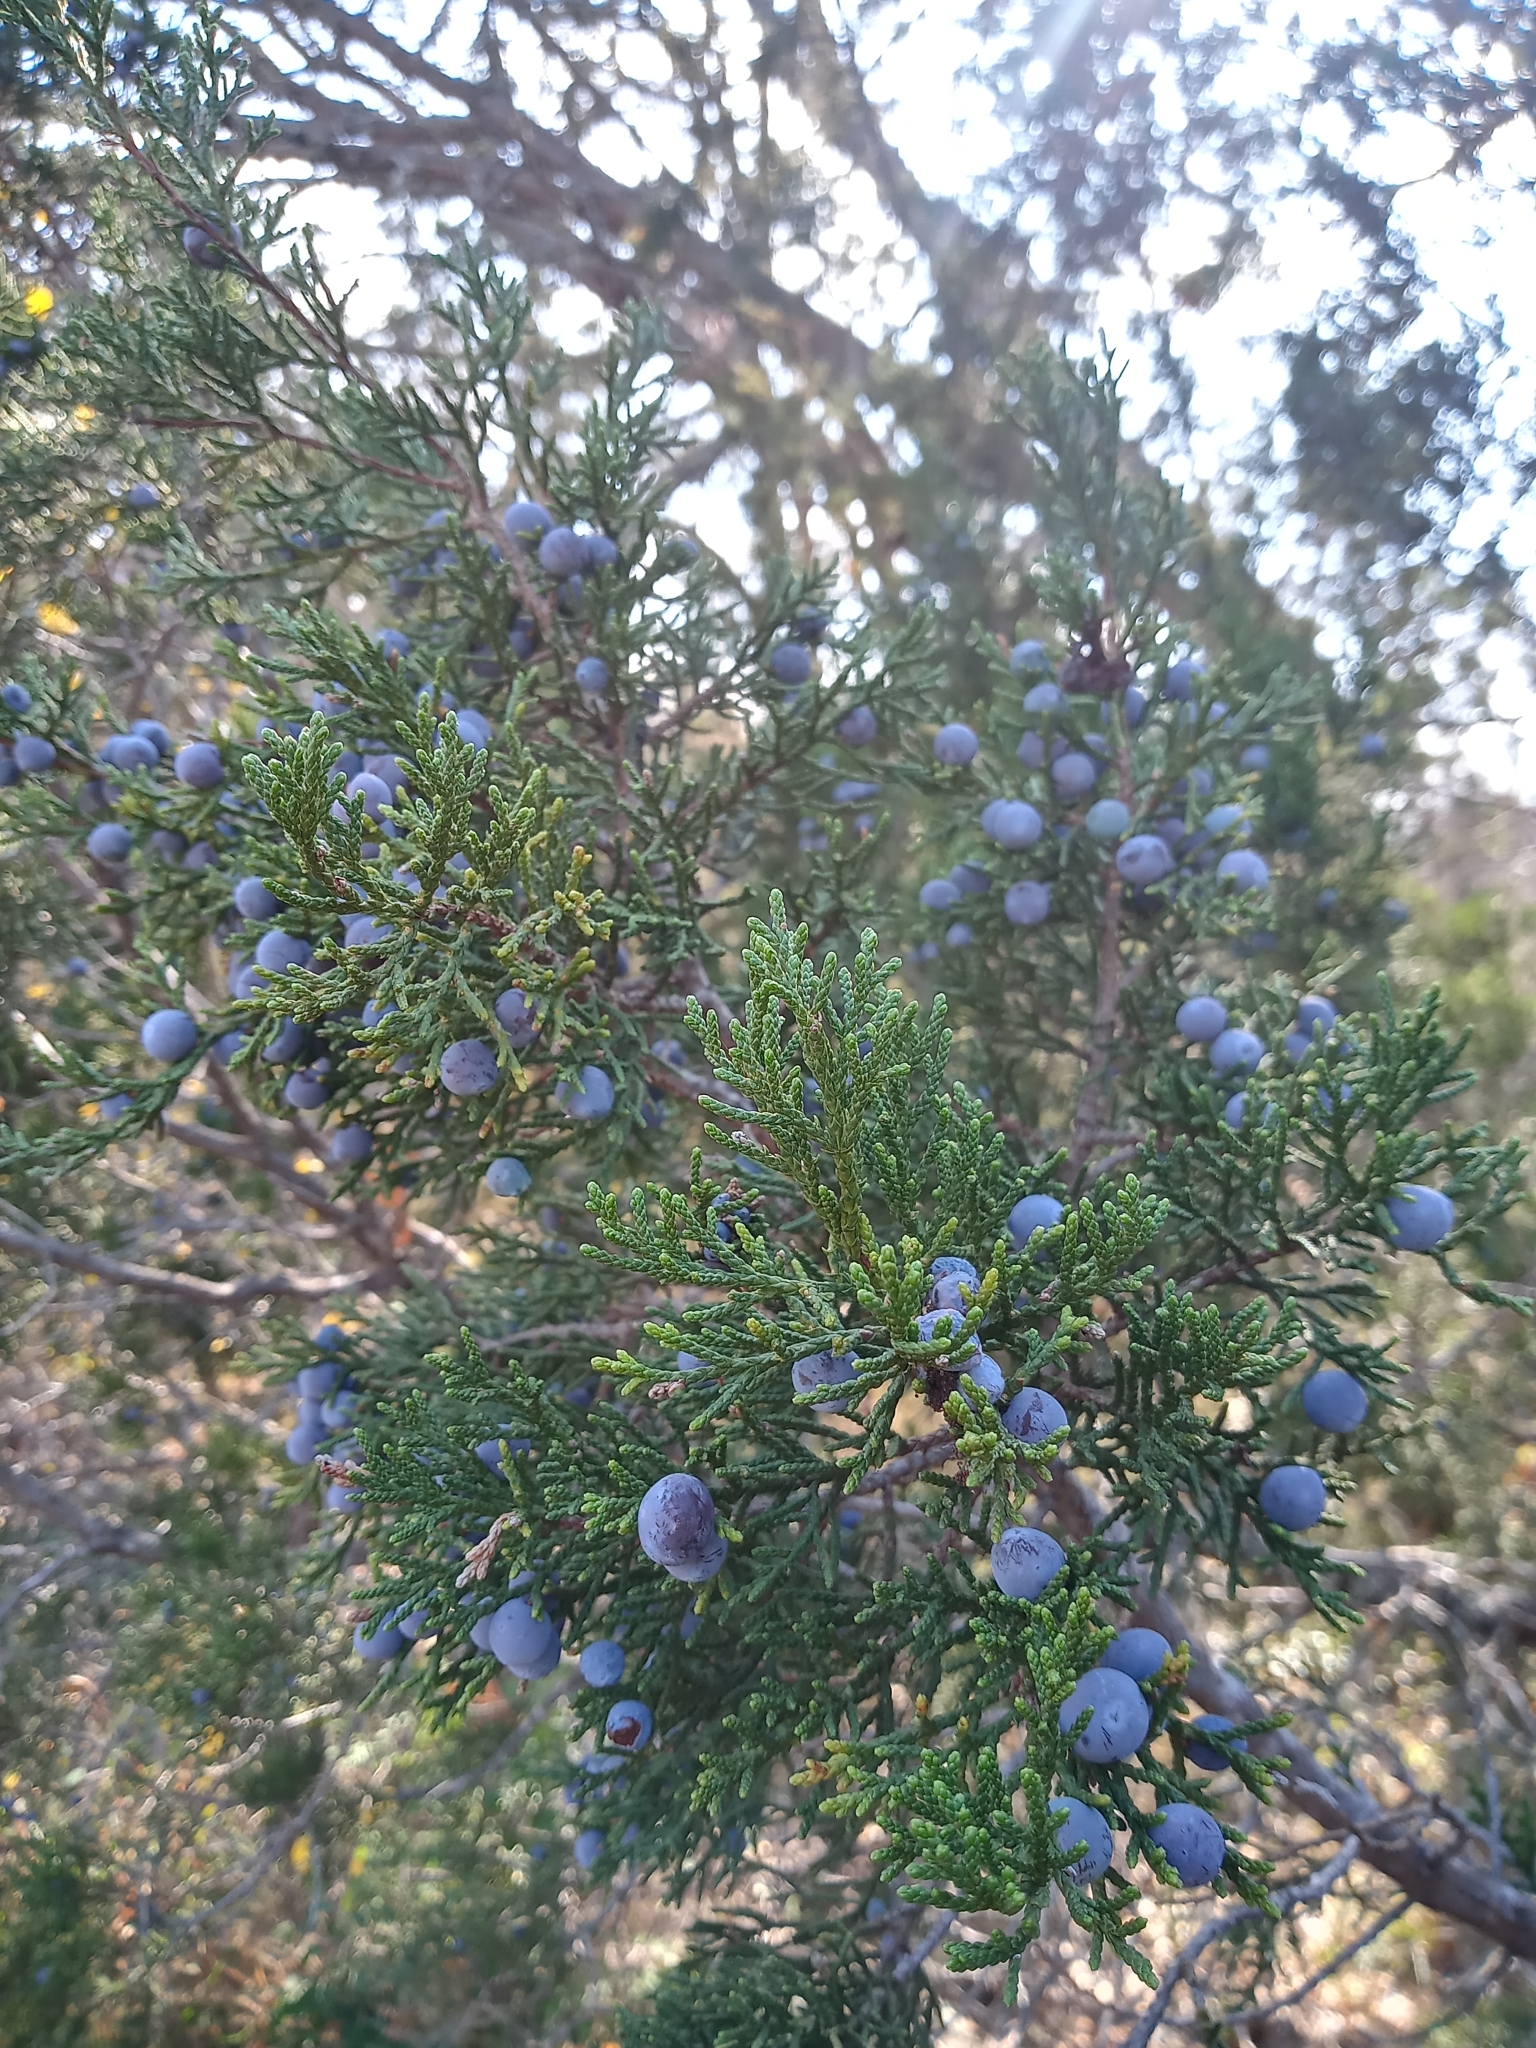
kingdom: Plantae
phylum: Tracheophyta
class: Pinopsida
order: Pinales
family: Cupressaceae
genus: Juniperus
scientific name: Juniperus ashei
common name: Mexican juniper
